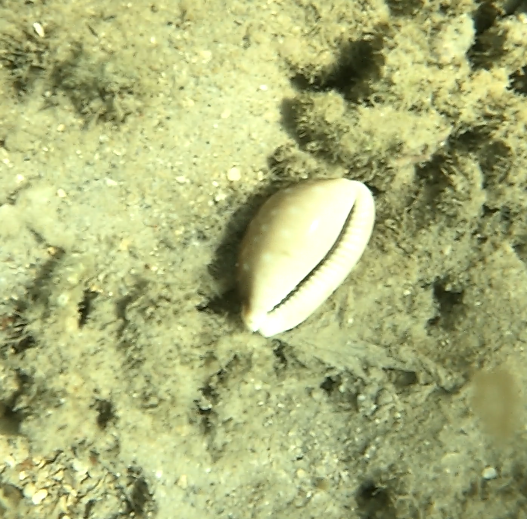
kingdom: Animalia
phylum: Mollusca
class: Gastropoda
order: Littorinimorpha
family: Cypraeidae
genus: Lyncina
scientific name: Lyncina vitellus
